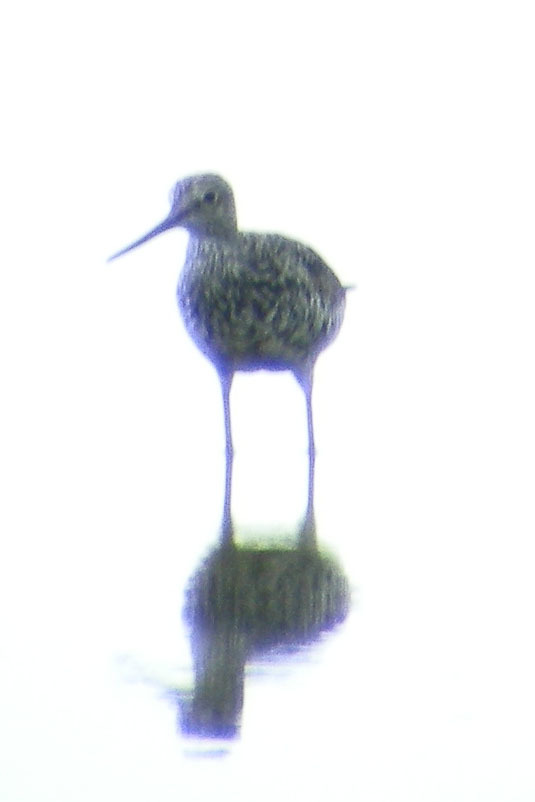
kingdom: Animalia
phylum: Chordata
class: Aves
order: Charadriiformes
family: Scolopacidae
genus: Tringa
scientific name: Tringa melanoleuca
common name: Greater yellowlegs
